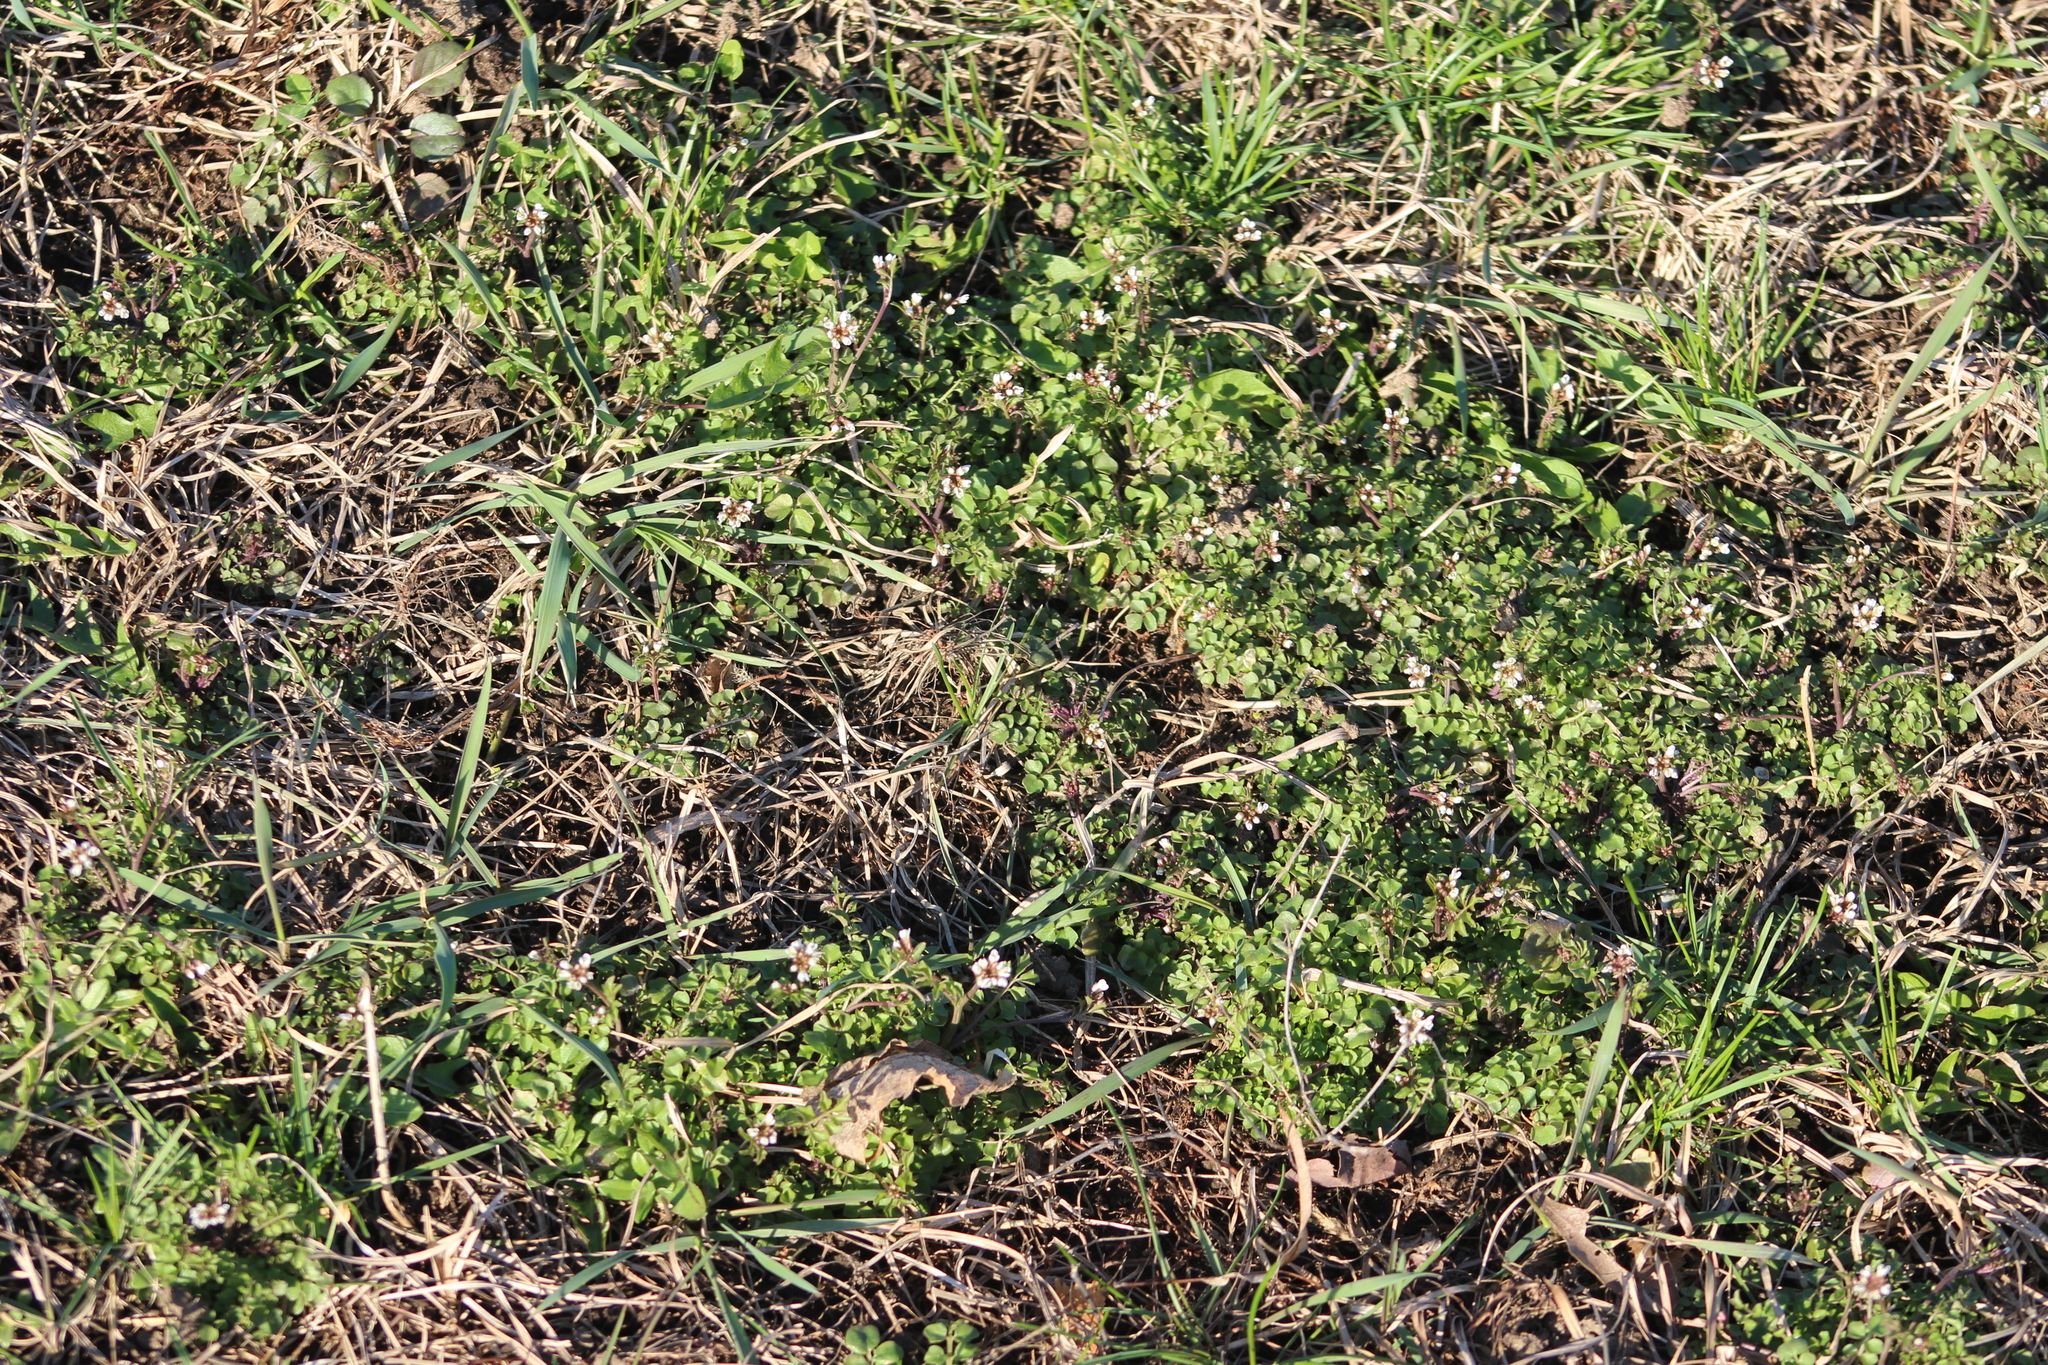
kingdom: Plantae
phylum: Tracheophyta
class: Magnoliopsida
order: Brassicales
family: Brassicaceae
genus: Cardamine
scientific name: Cardamine hirsuta
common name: Hairy bittercress
